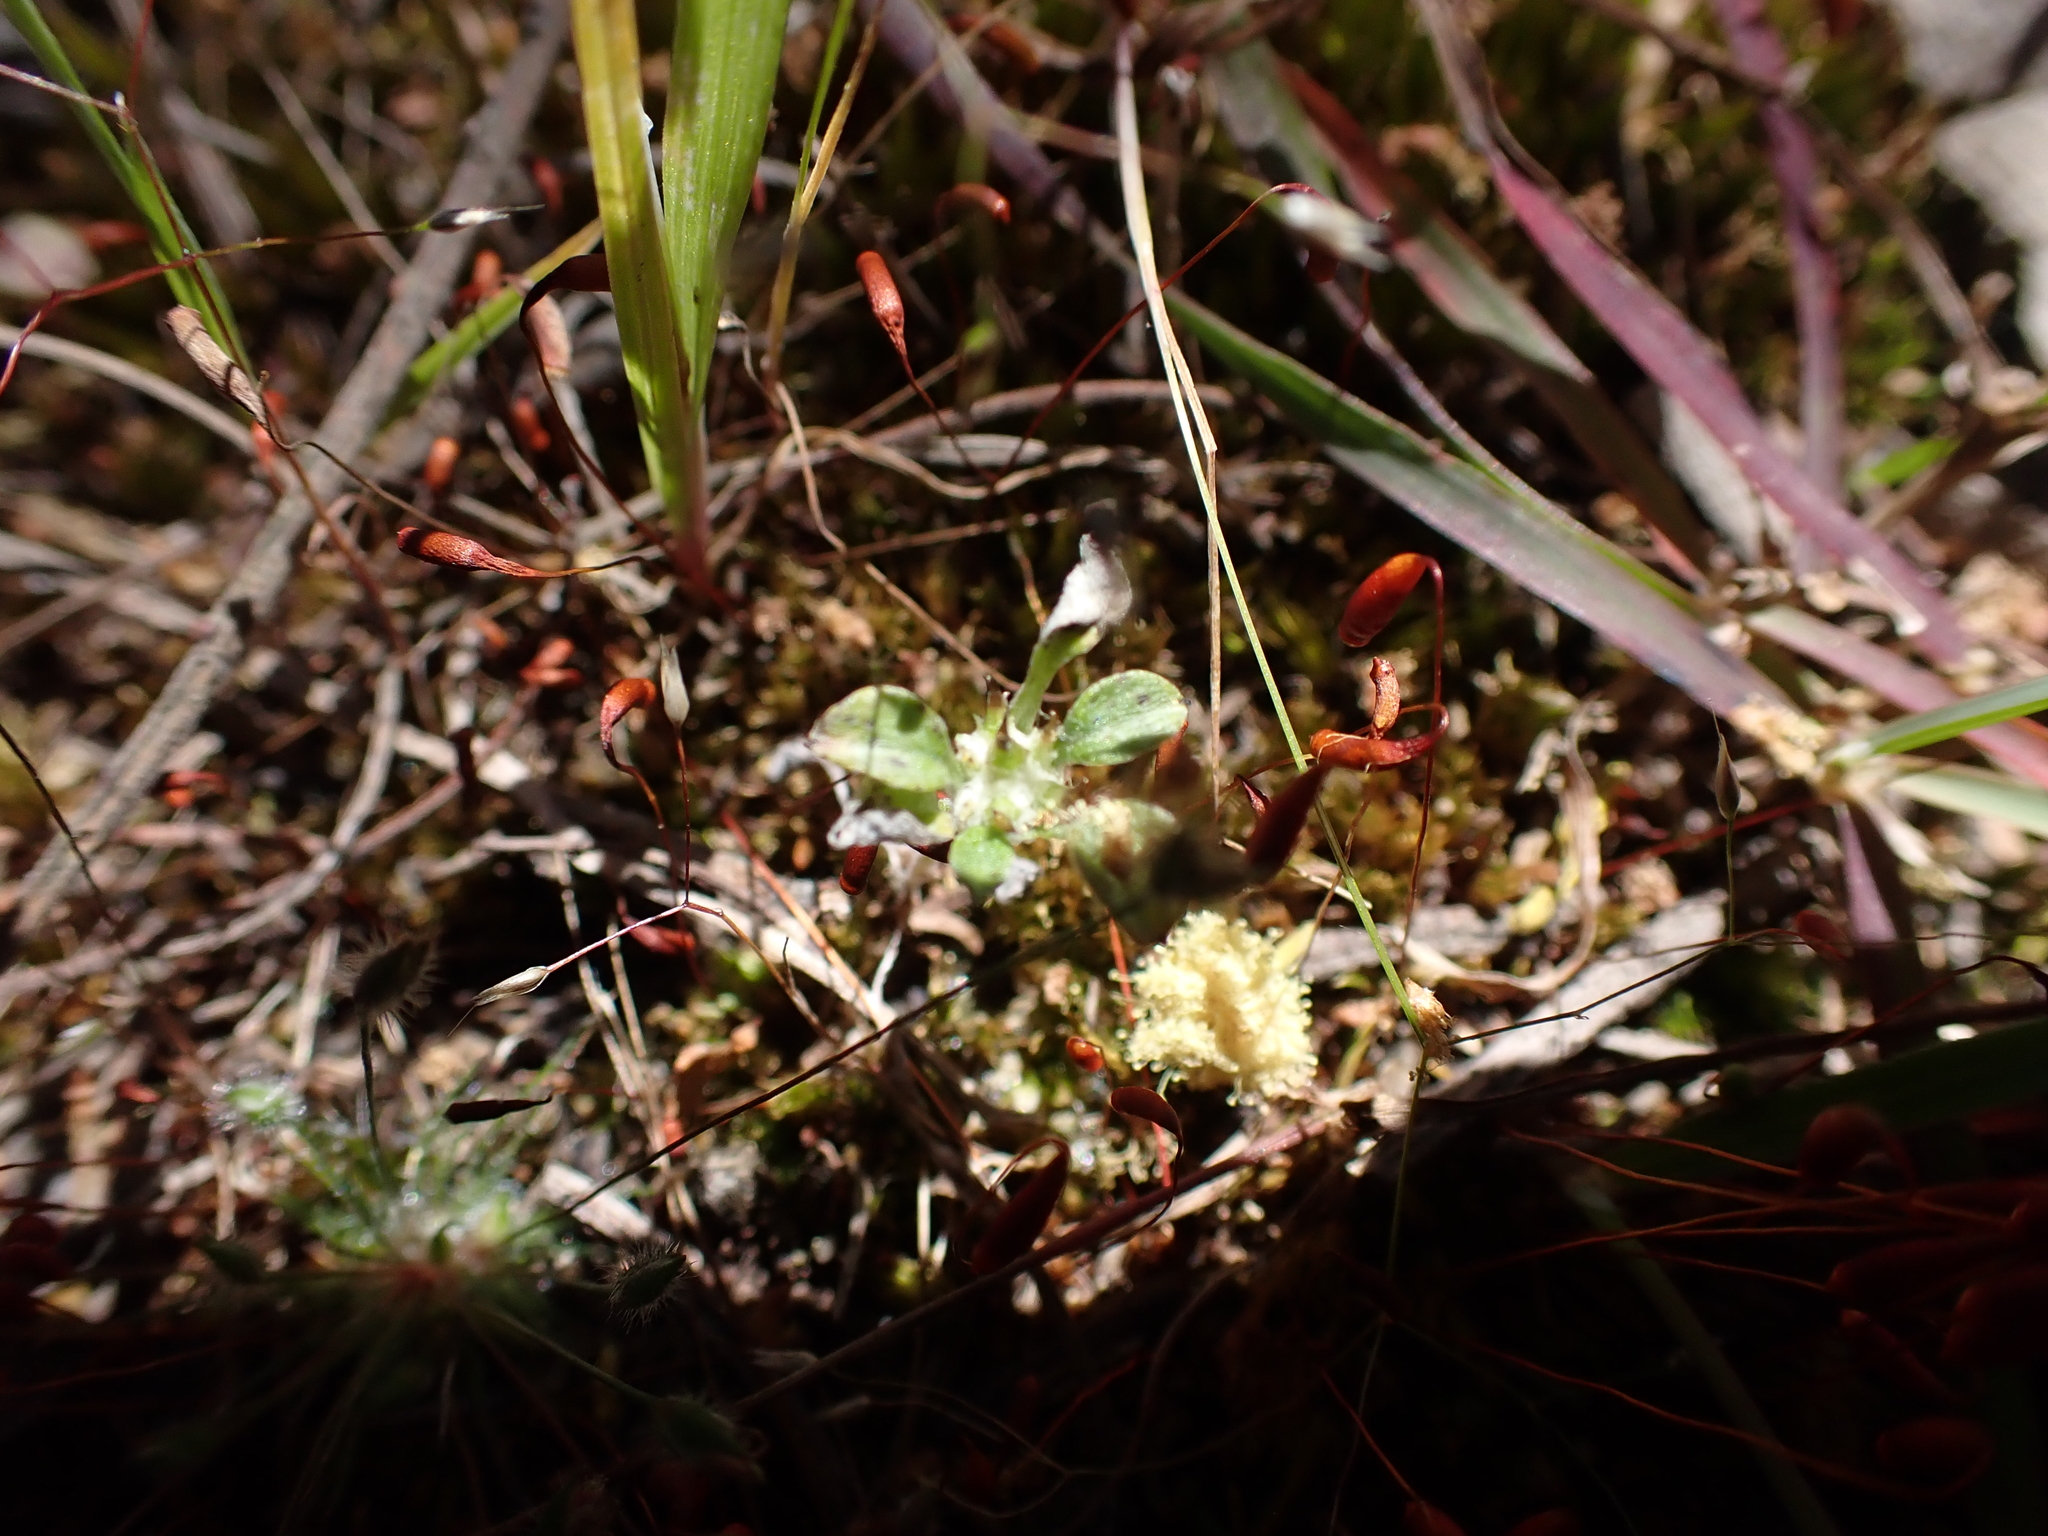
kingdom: Plantae
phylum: Tracheophyta
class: Magnoliopsida
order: Asterales
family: Asteraceae
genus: Stuartina
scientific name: Stuartina muelleri
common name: Spoon-leaved cudweed
